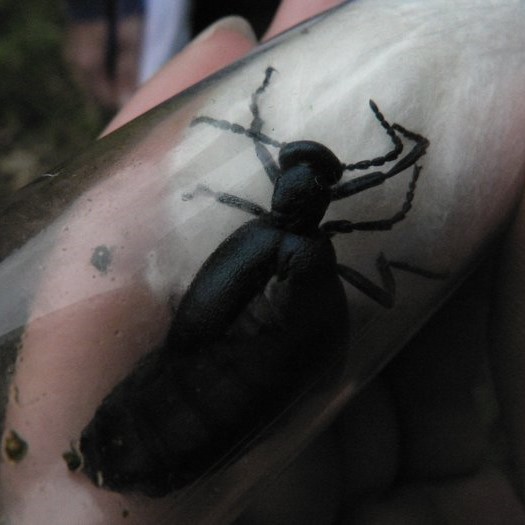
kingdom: Animalia
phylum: Arthropoda
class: Insecta
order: Coleoptera
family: Meloidae
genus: Meloe
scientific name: Meloe proscarabaeus
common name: Black oil-beetle
